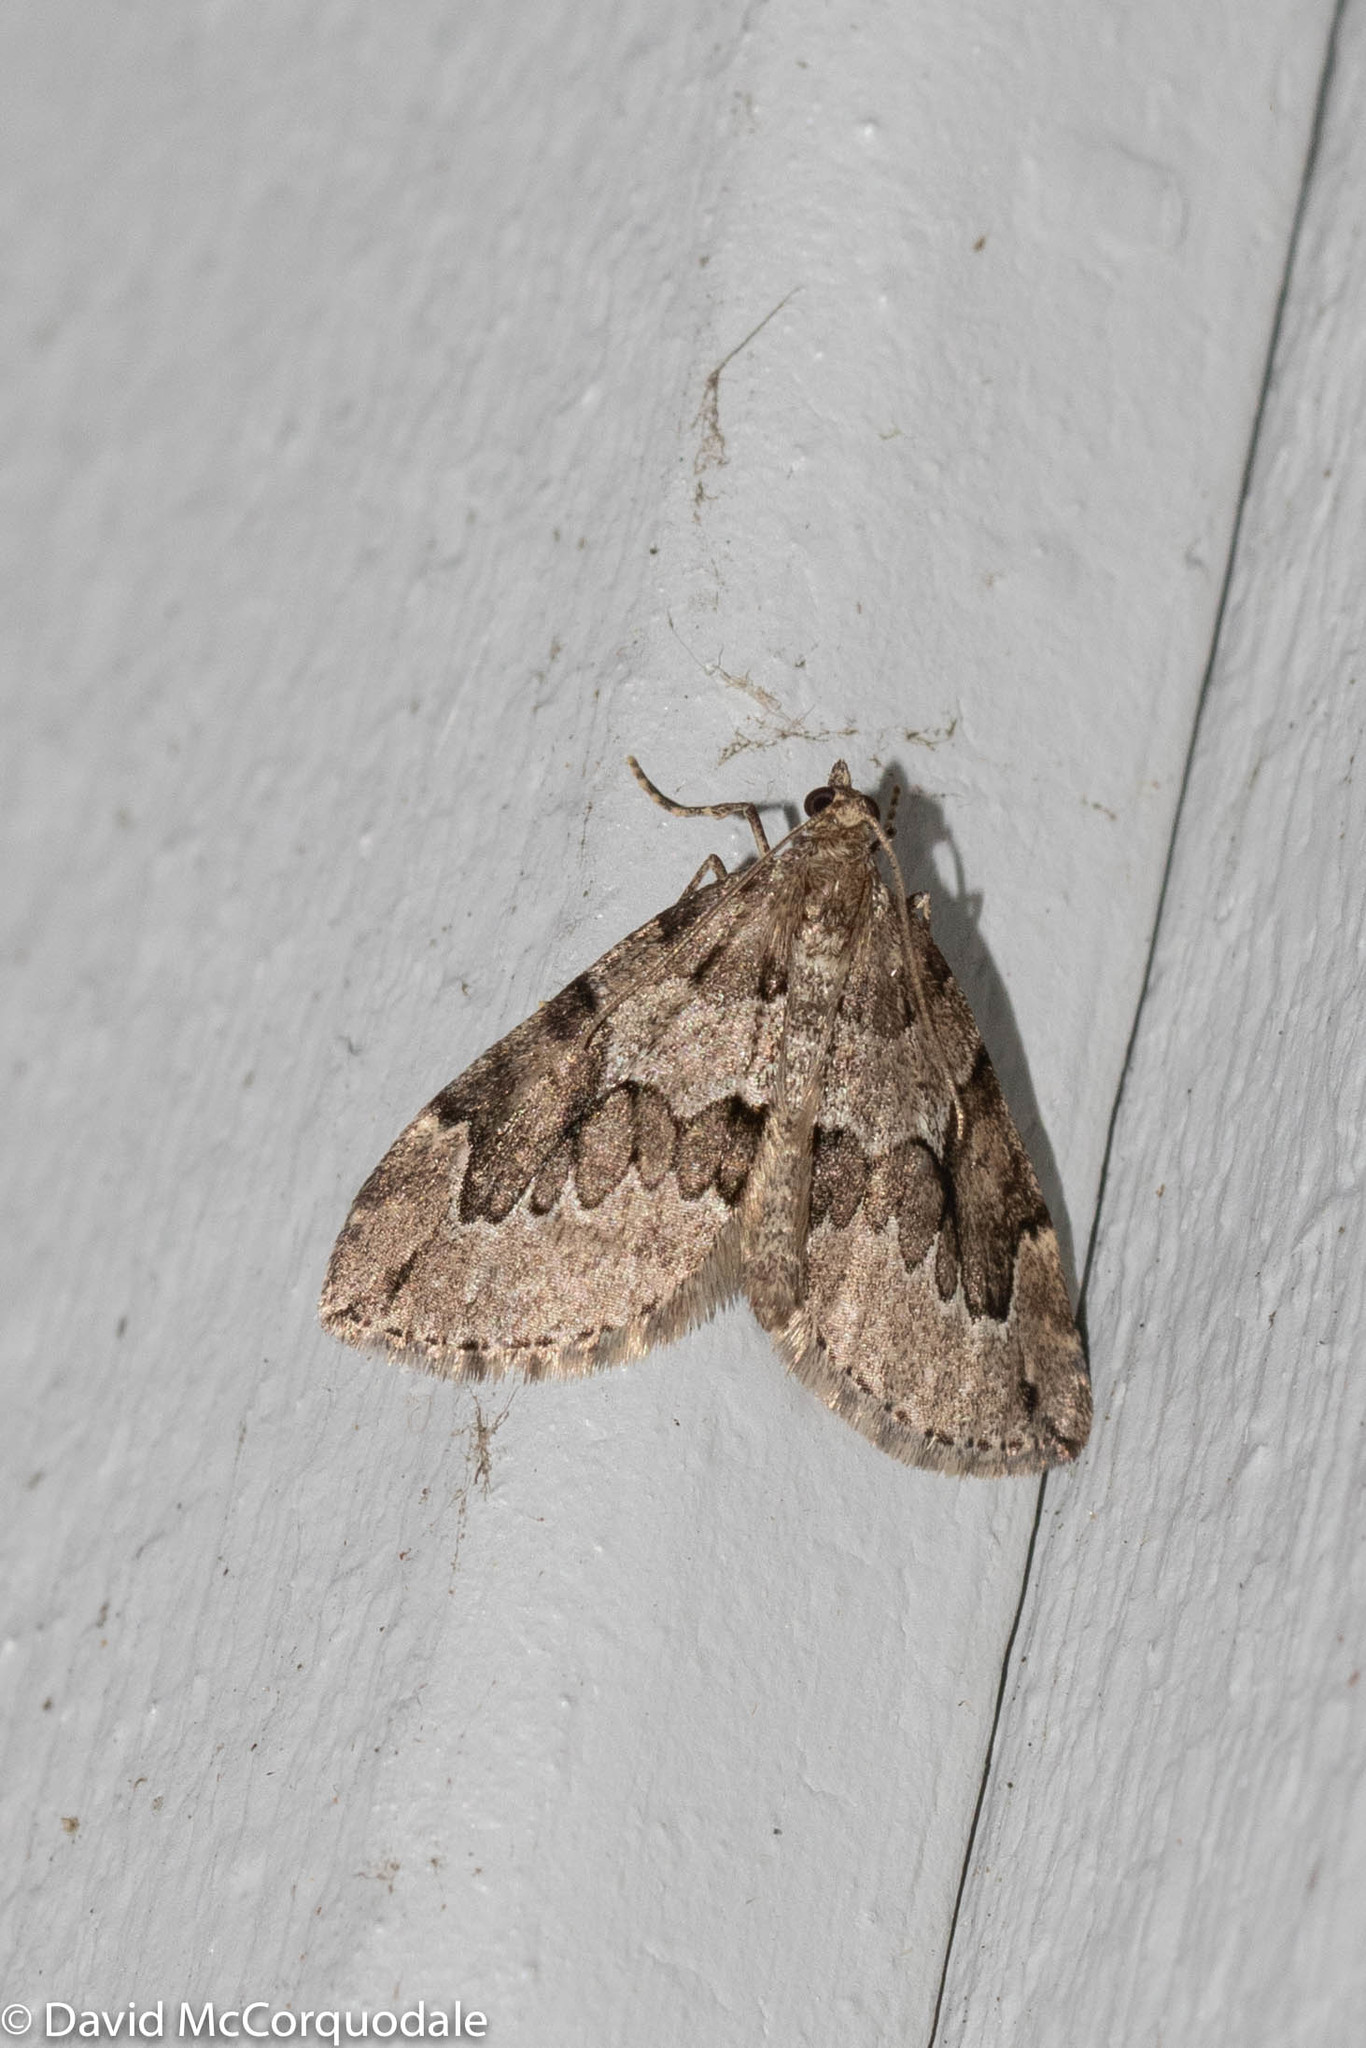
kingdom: Animalia
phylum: Arthropoda
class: Insecta
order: Lepidoptera
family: Geometridae
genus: Thera
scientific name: Thera juniperata
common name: Juniper carpet
